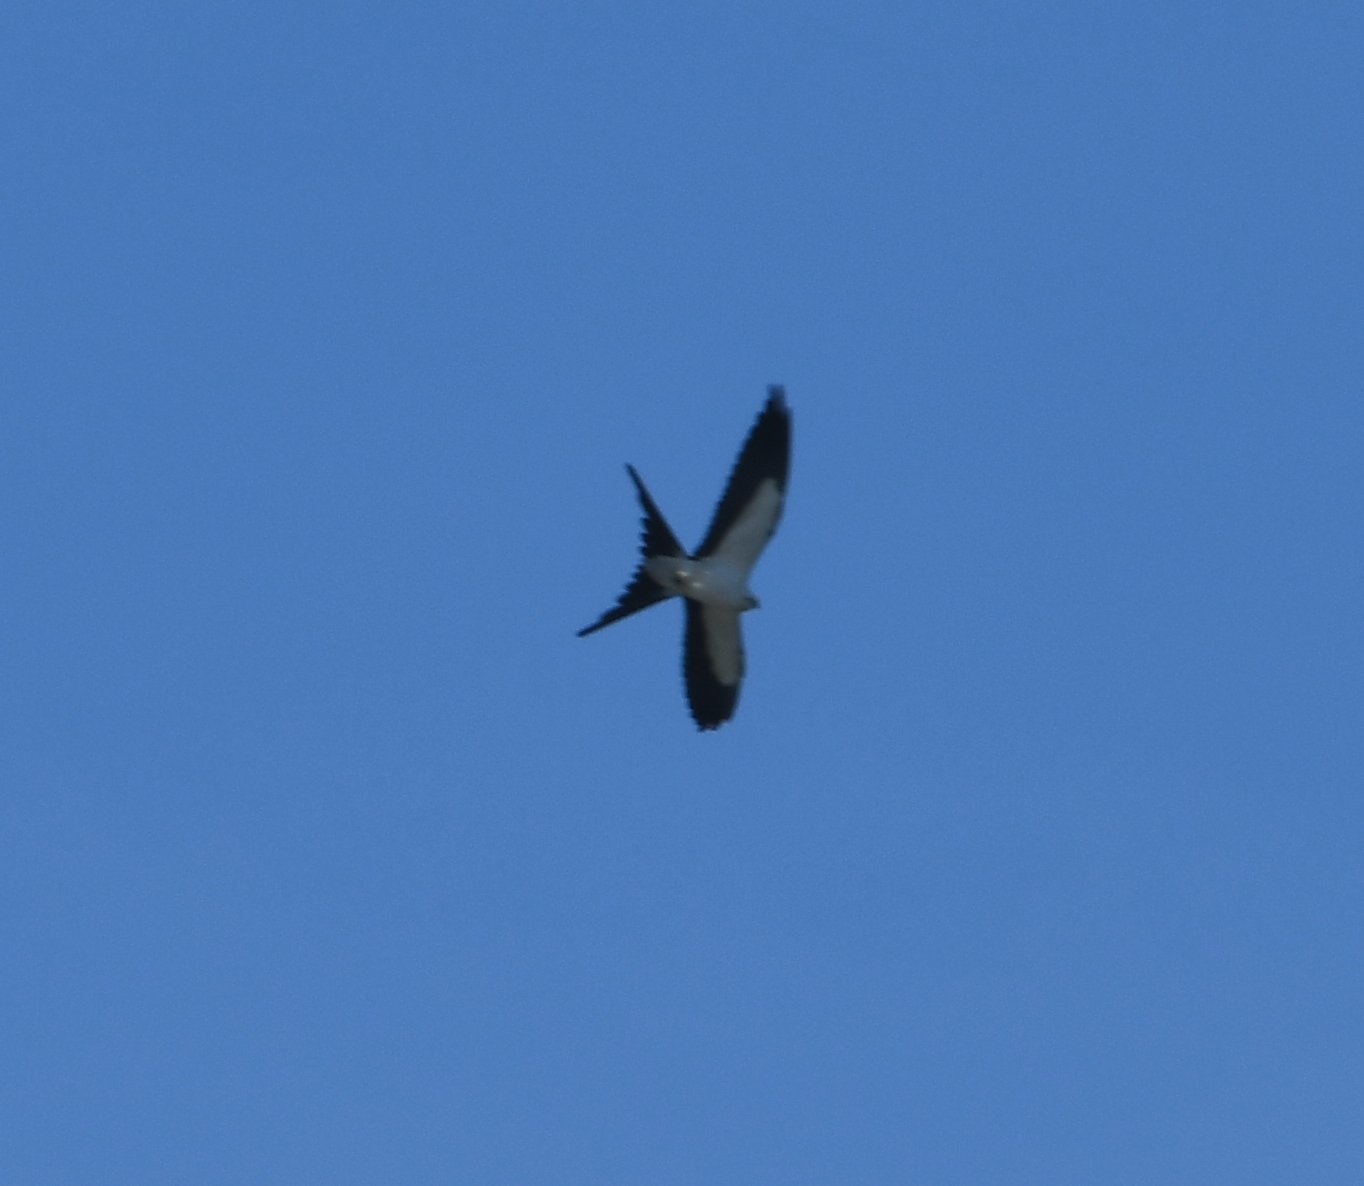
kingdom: Animalia
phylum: Chordata
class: Aves
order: Accipitriformes
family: Accipitridae
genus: Elanoides
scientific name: Elanoides forficatus
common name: Swallow-tailed kite
